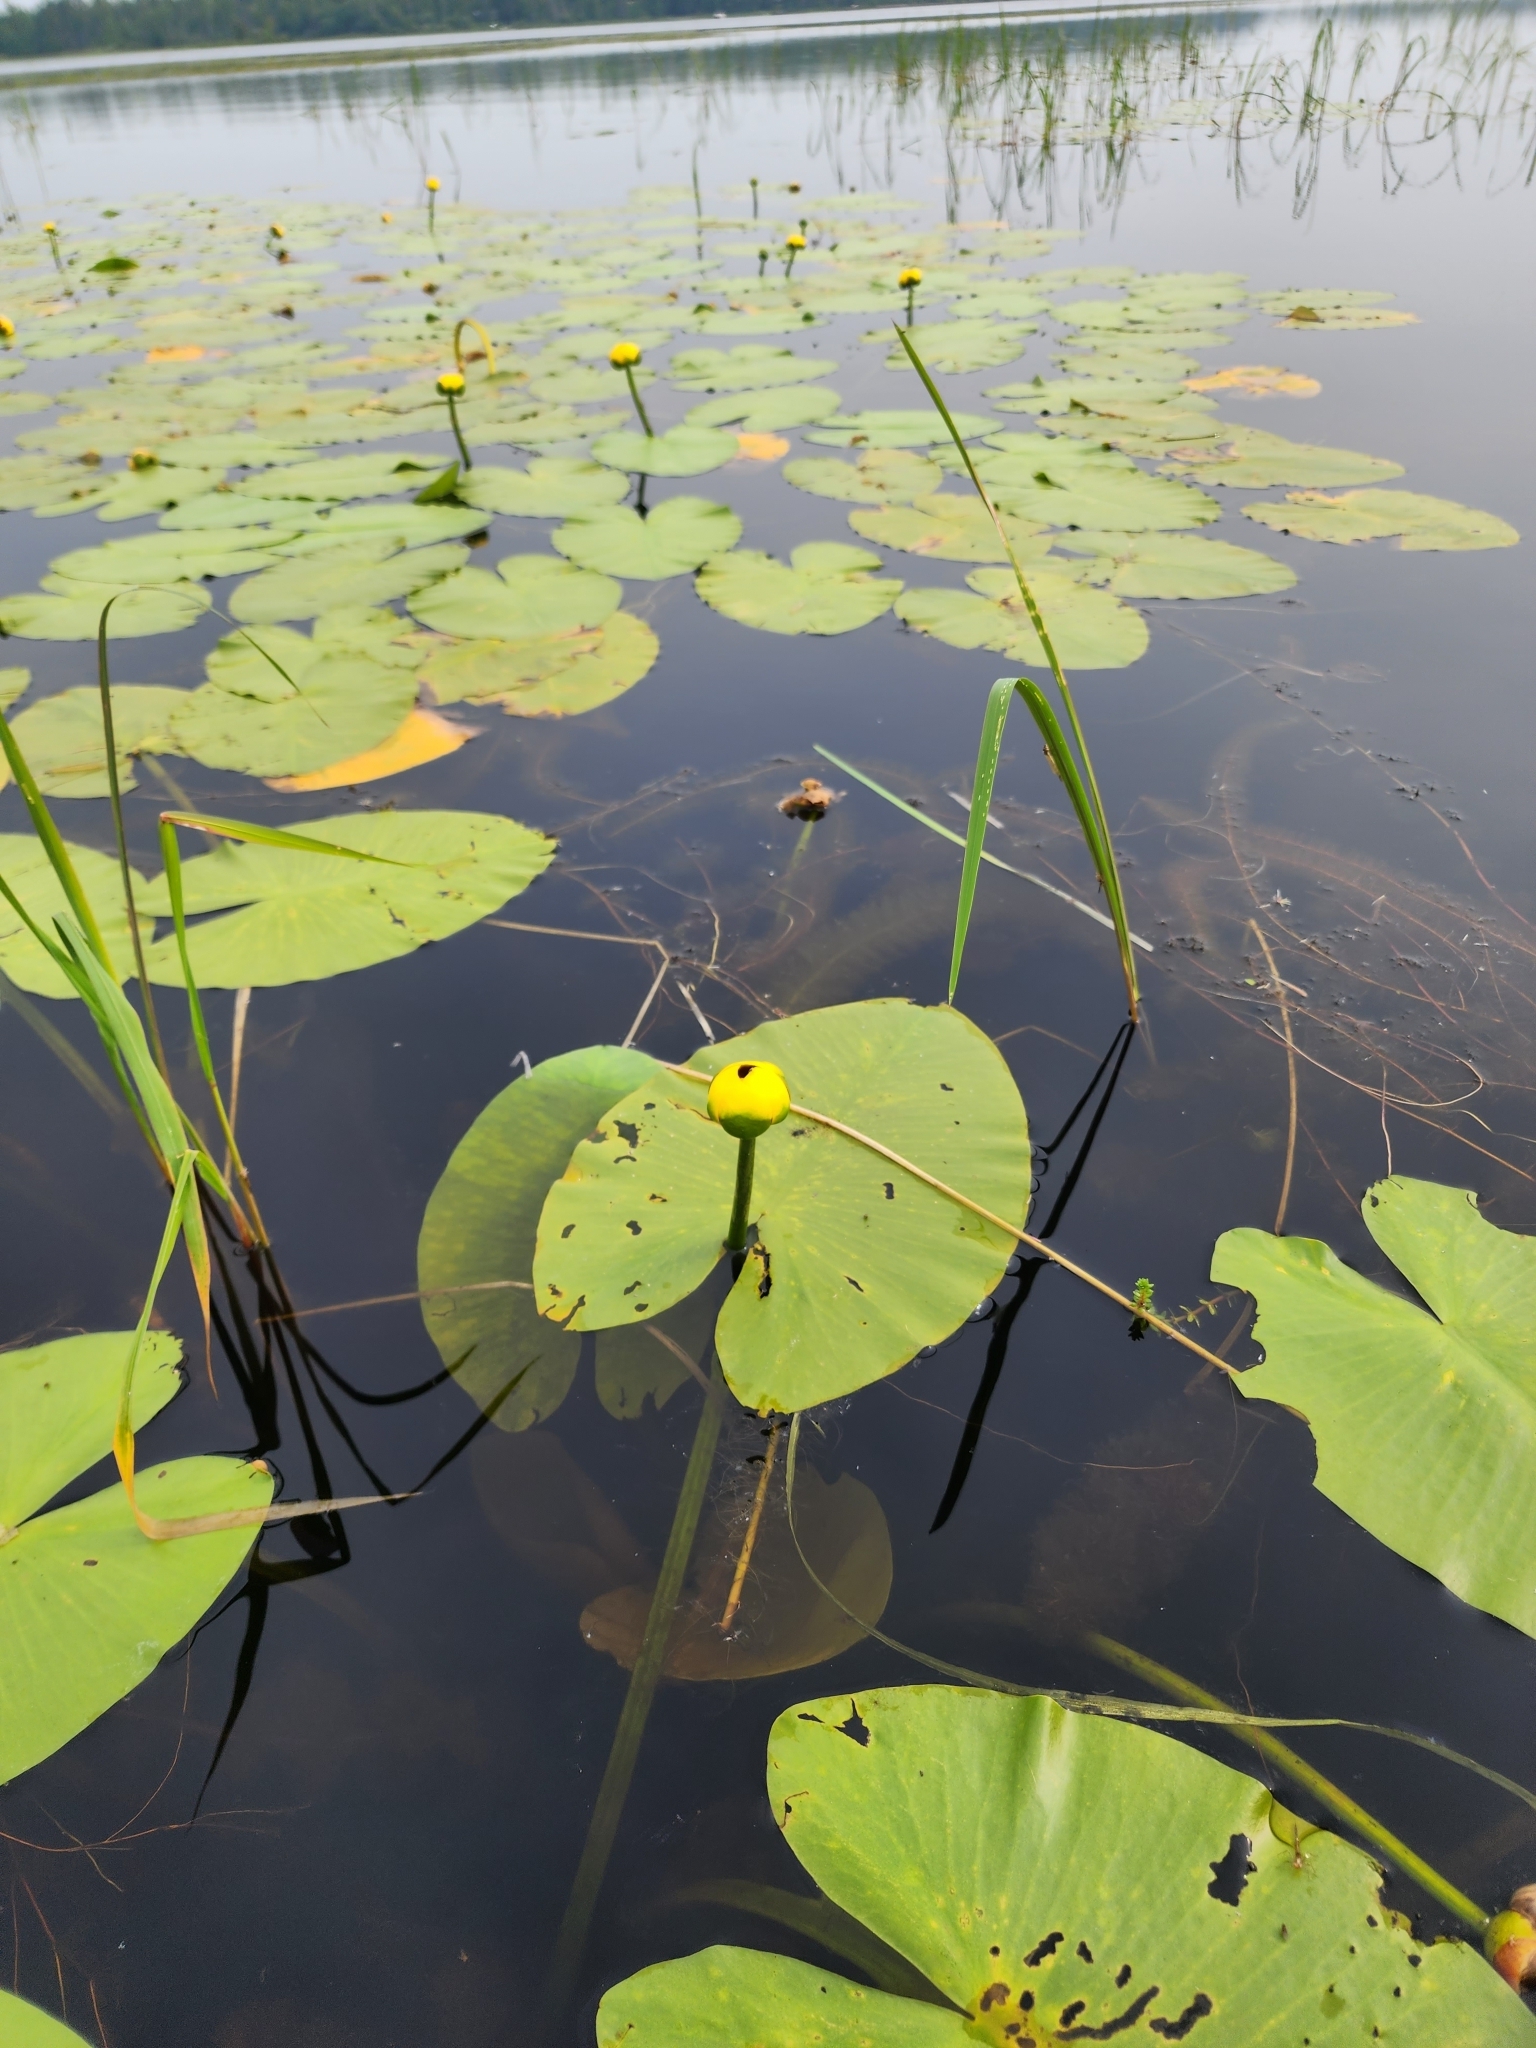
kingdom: Plantae
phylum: Tracheophyta
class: Magnoliopsida
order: Nymphaeales
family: Nymphaeaceae
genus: Nuphar
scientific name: Nuphar variegata
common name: Beaver-root
